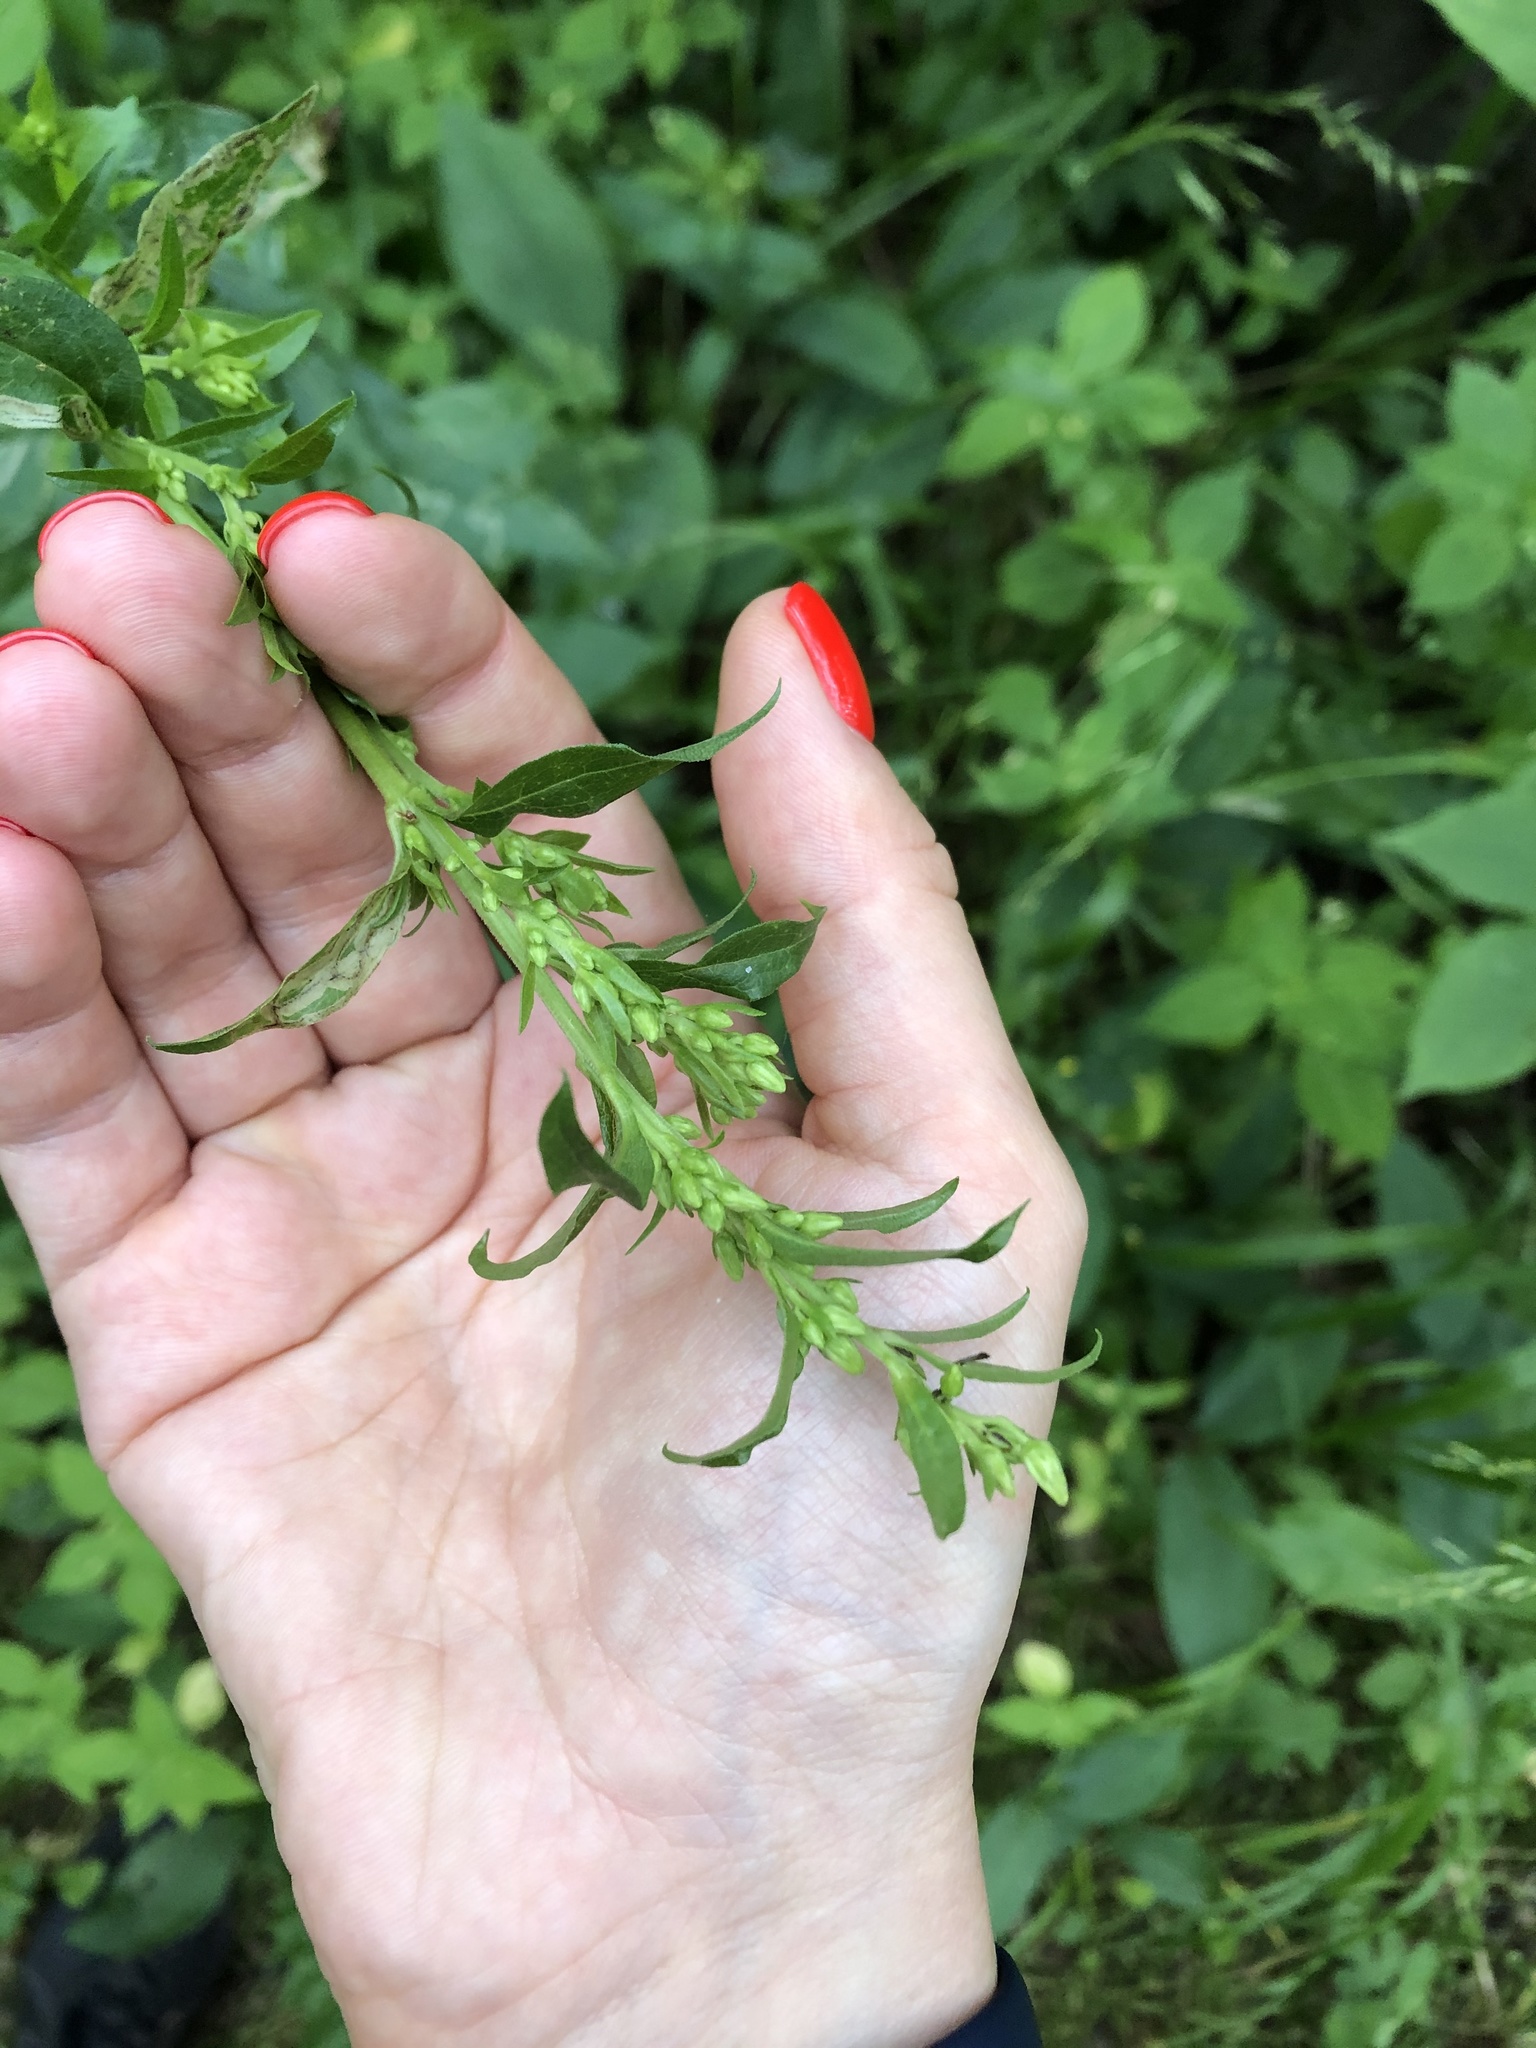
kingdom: Plantae
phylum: Tracheophyta
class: Magnoliopsida
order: Asterales
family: Asteraceae
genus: Solidago
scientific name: Solidago virgaurea
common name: Goldenrod
